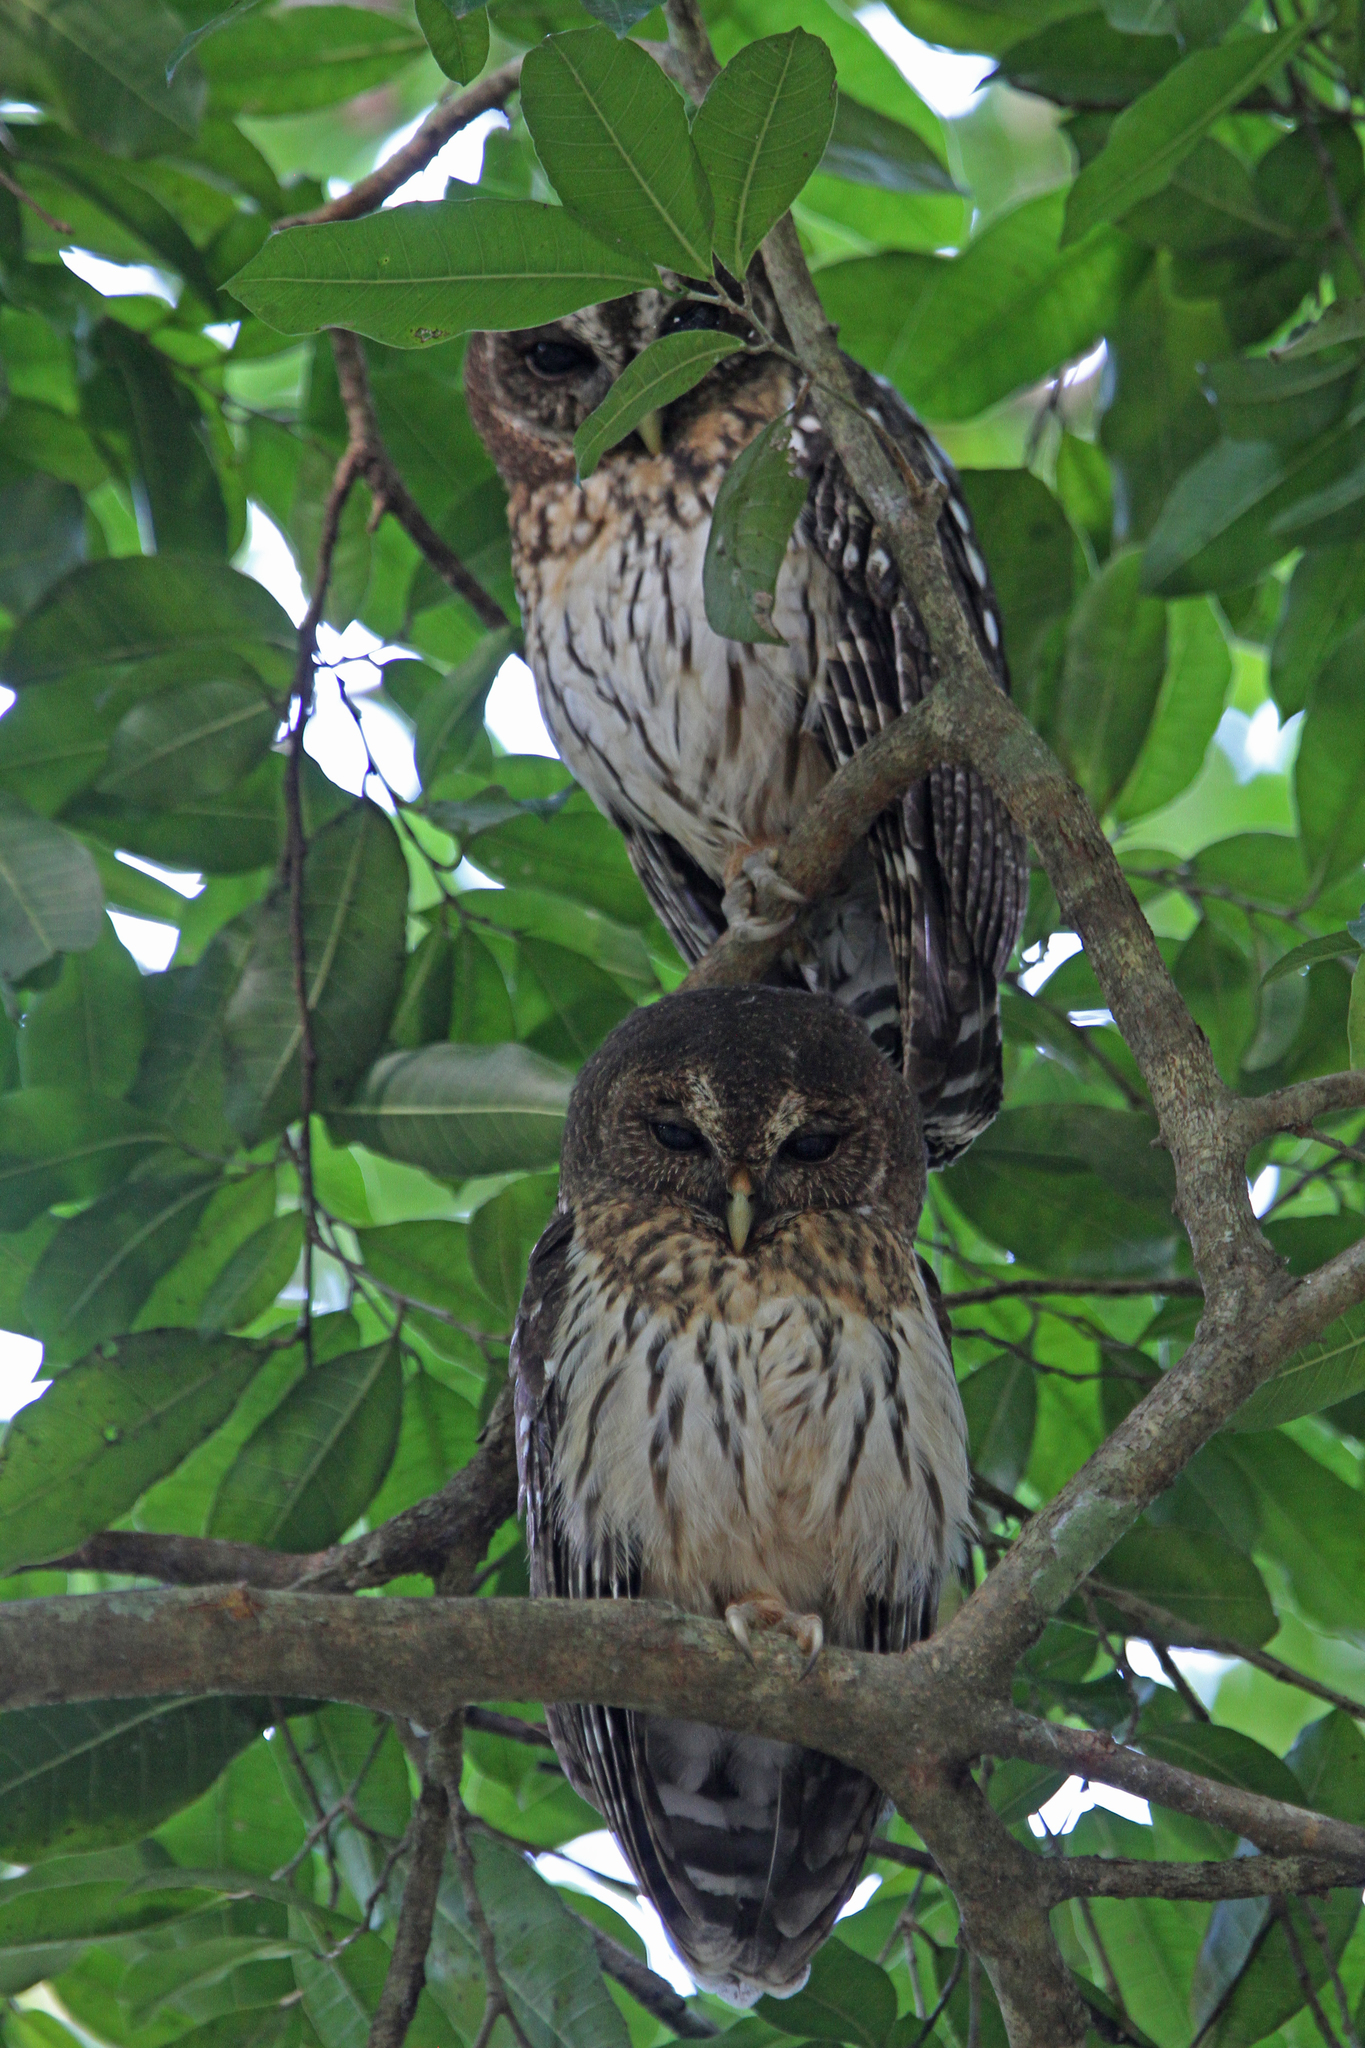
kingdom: Animalia
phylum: Chordata
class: Aves
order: Strigiformes
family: Strigidae
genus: Strix
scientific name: Strix virgata
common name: Mottled owl
